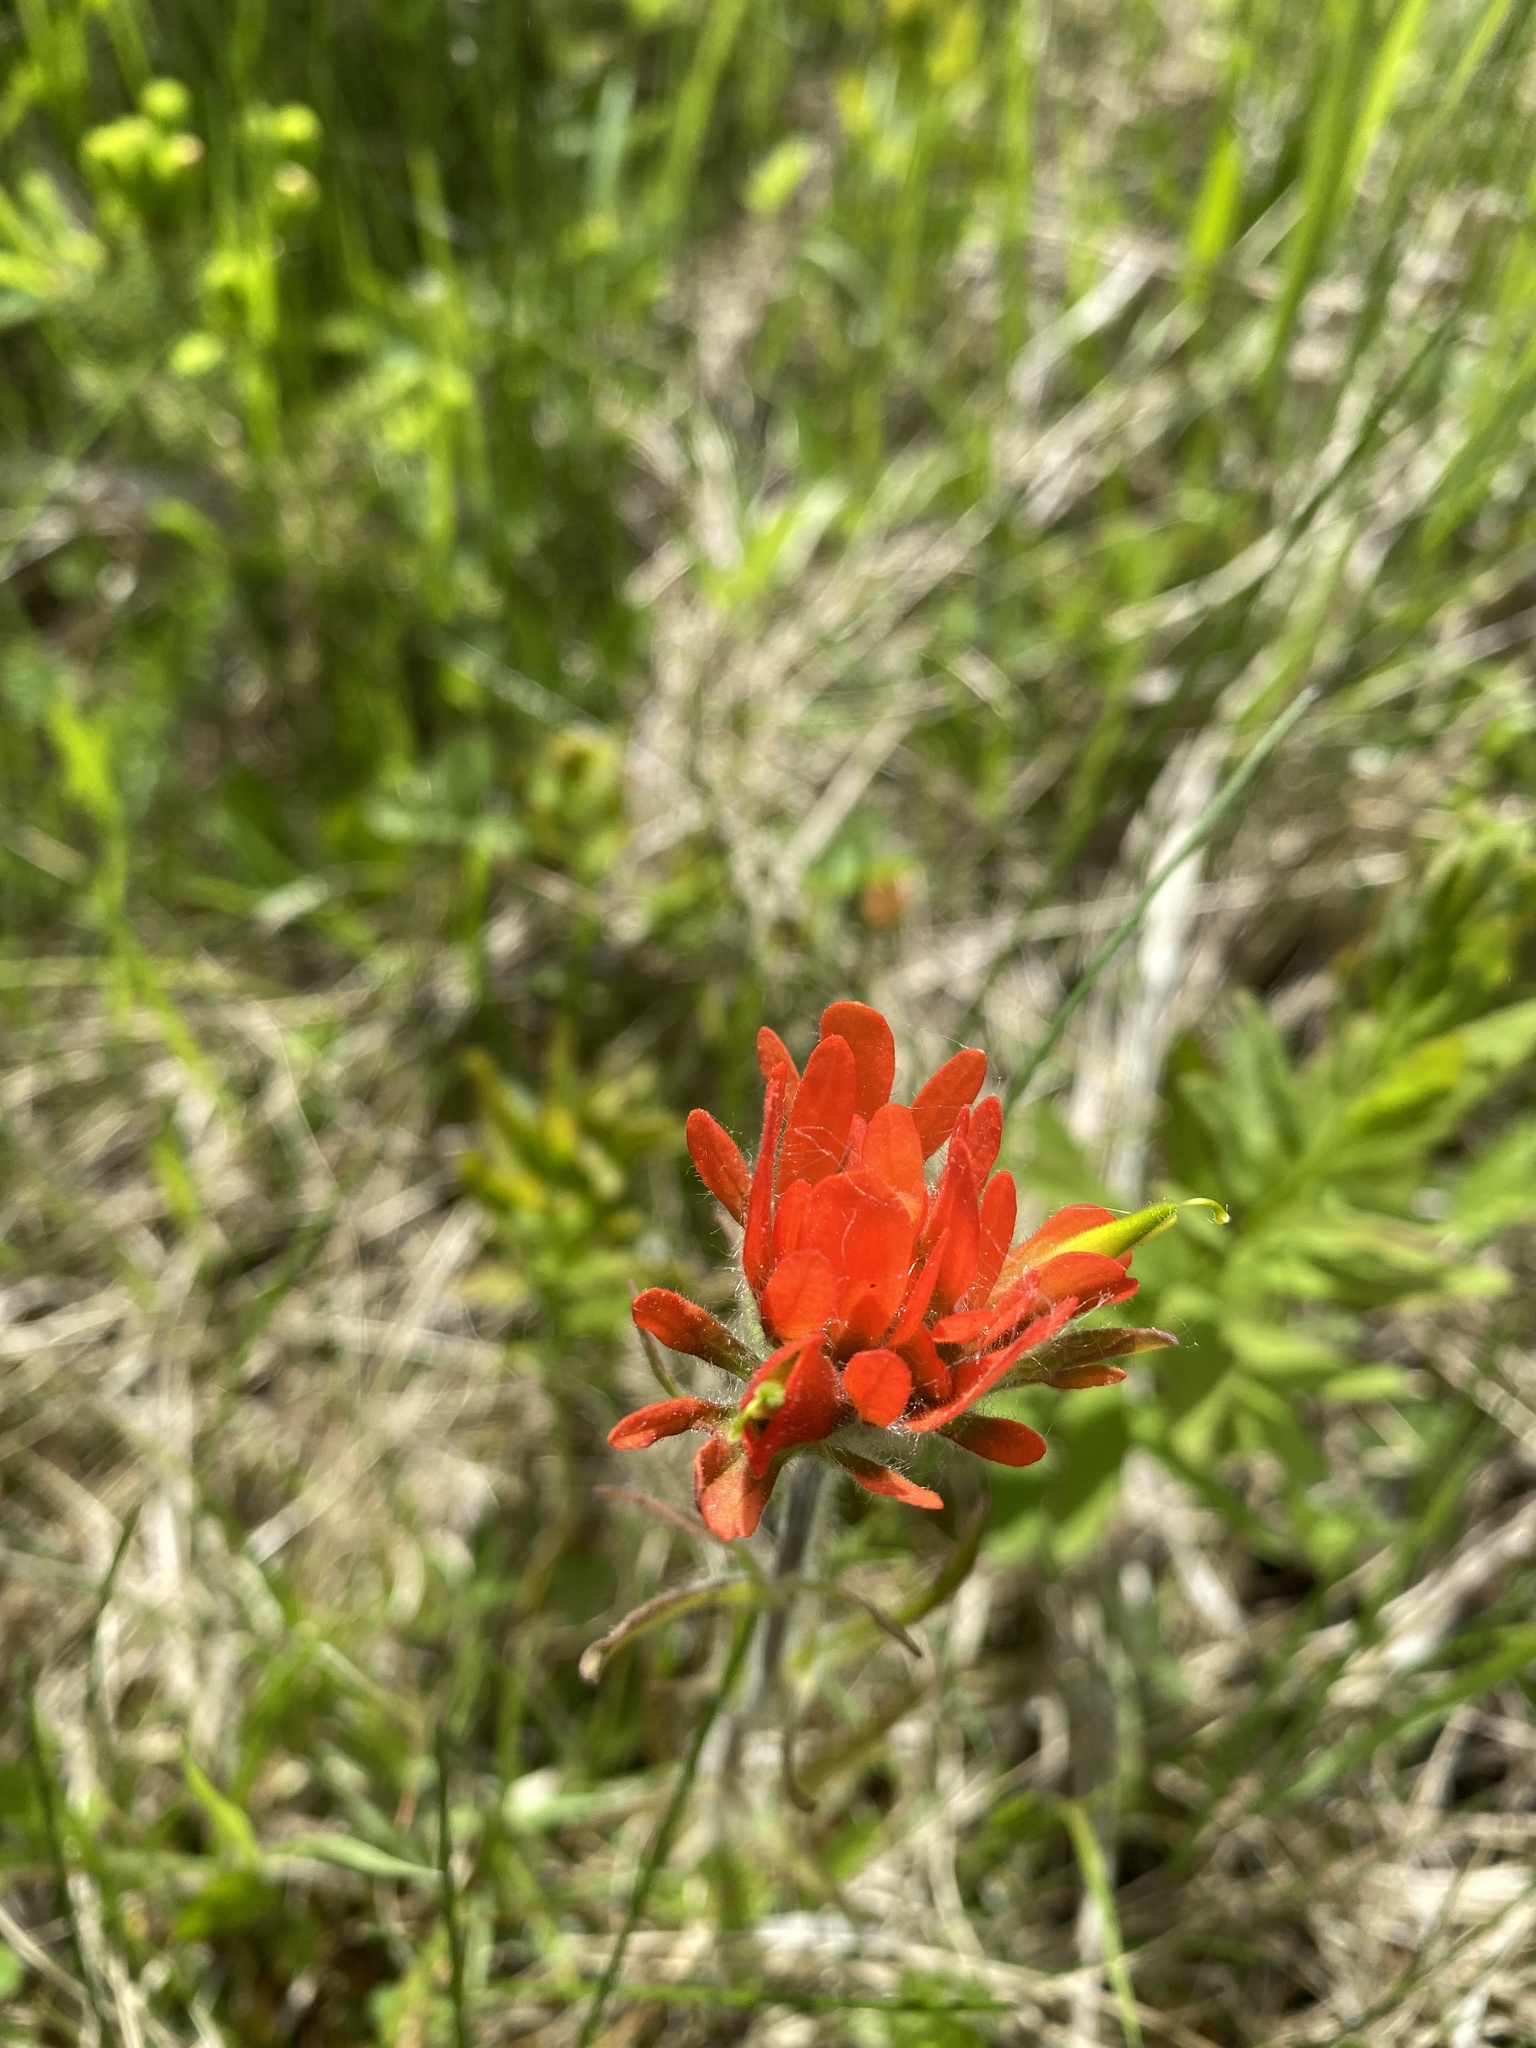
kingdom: Plantae
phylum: Tracheophyta
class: Magnoliopsida
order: Lamiales
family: Orobanchaceae
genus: Castilleja
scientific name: Castilleja coccinea
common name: Scarlet paintbrush
